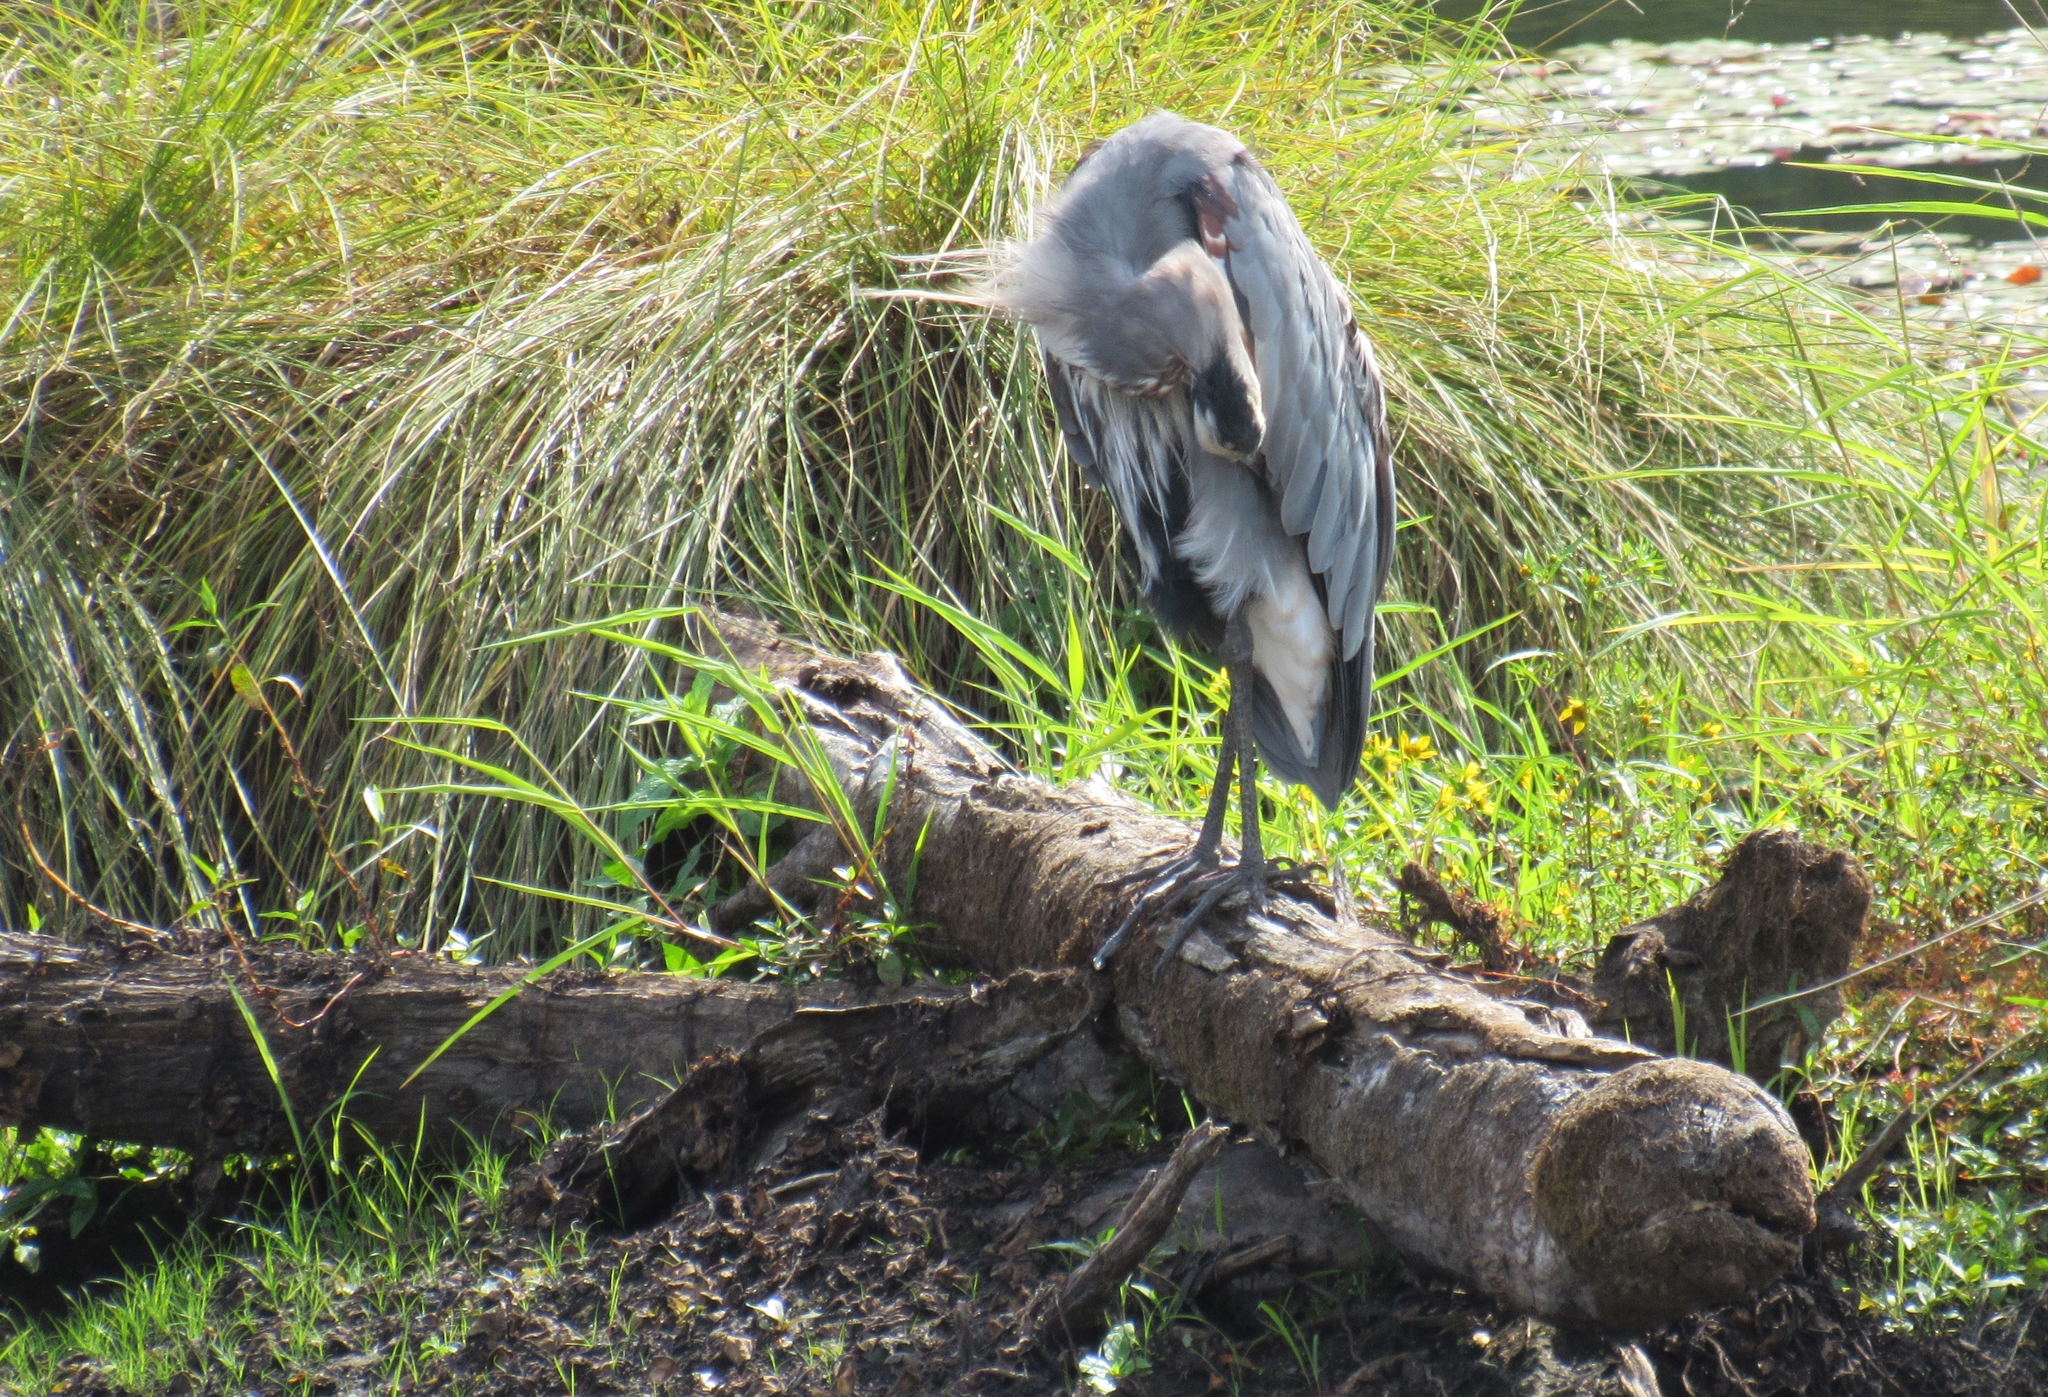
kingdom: Animalia
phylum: Chordata
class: Aves
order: Pelecaniformes
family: Ardeidae
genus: Ardea
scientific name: Ardea herodias
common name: Great blue heron
